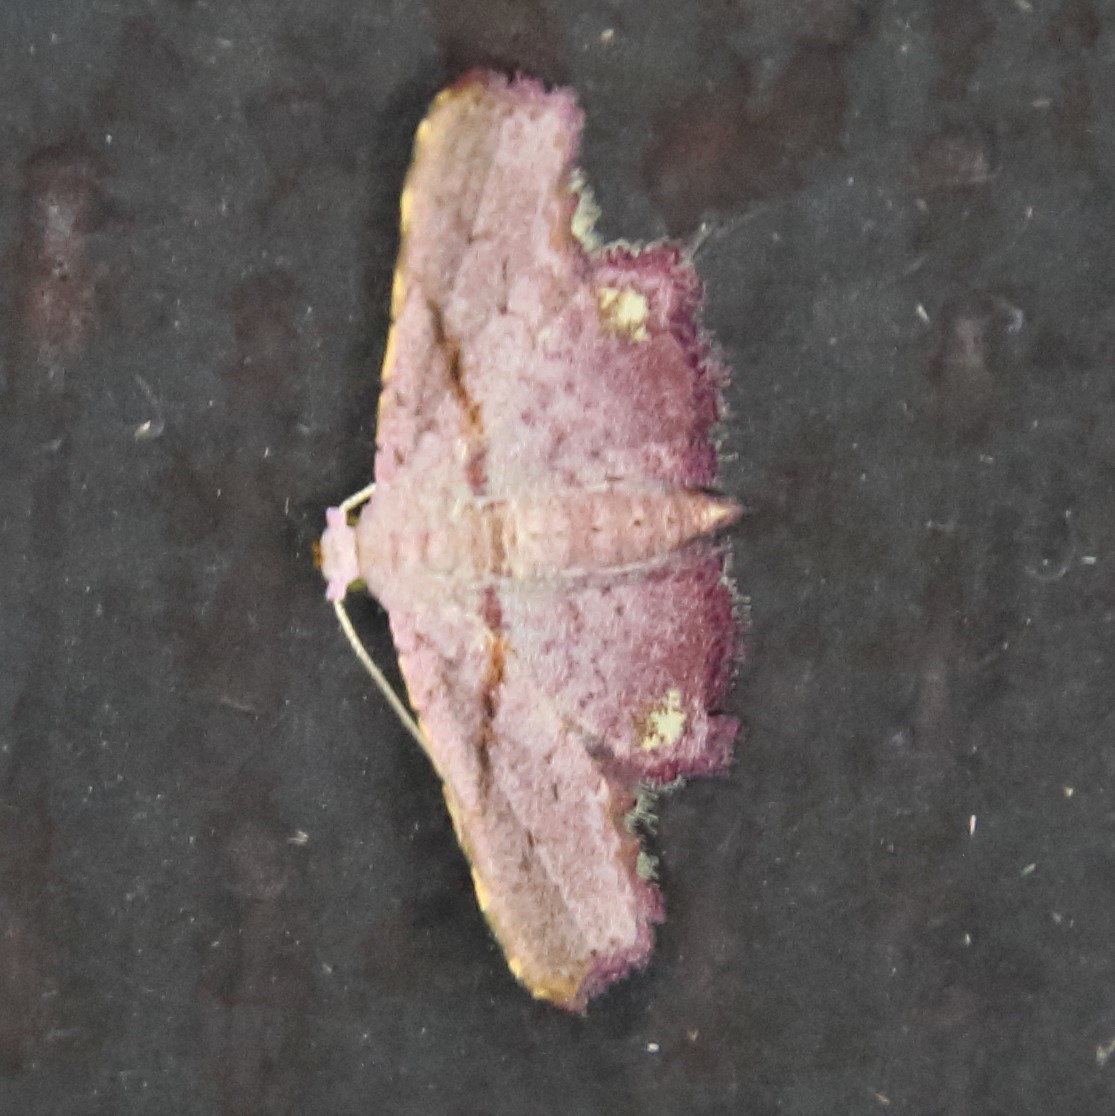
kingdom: Animalia
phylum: Arthropoda
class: Insecta
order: Lepidoptera
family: Noctuidae
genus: Niaccaba
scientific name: Niaccaba sumptualis
